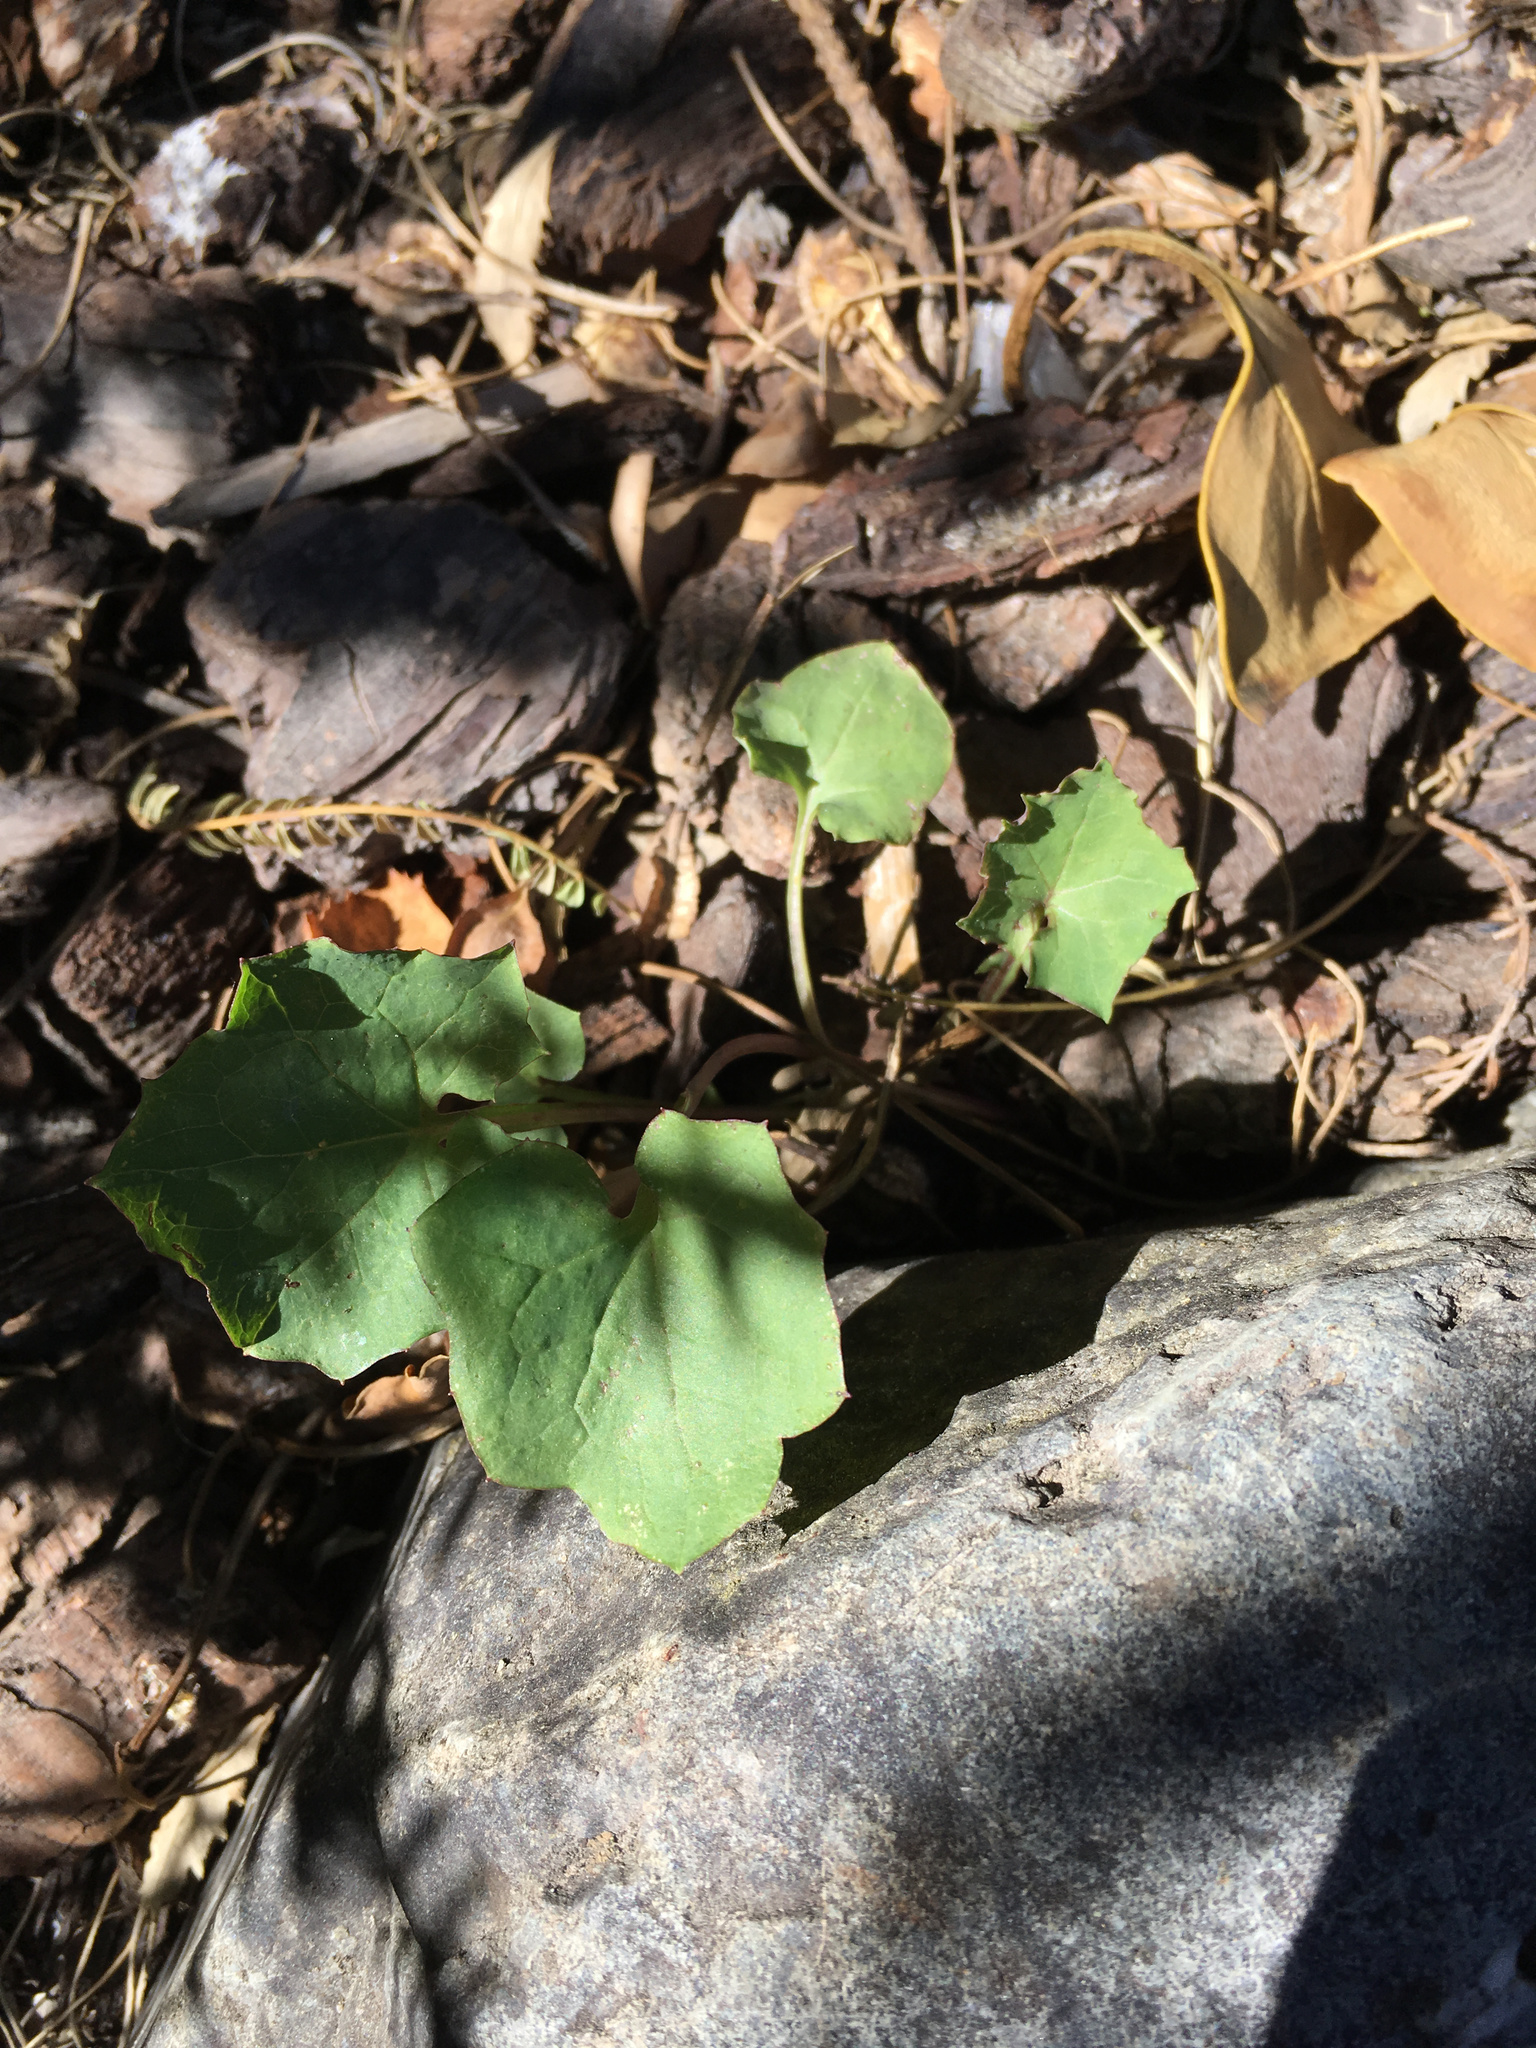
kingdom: Plantae
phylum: Tracheophyta
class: Magnoliopsida
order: Asterales
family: Asteraceae
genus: Mycelis
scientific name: Mycelis muralis
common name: Wall lettuce
